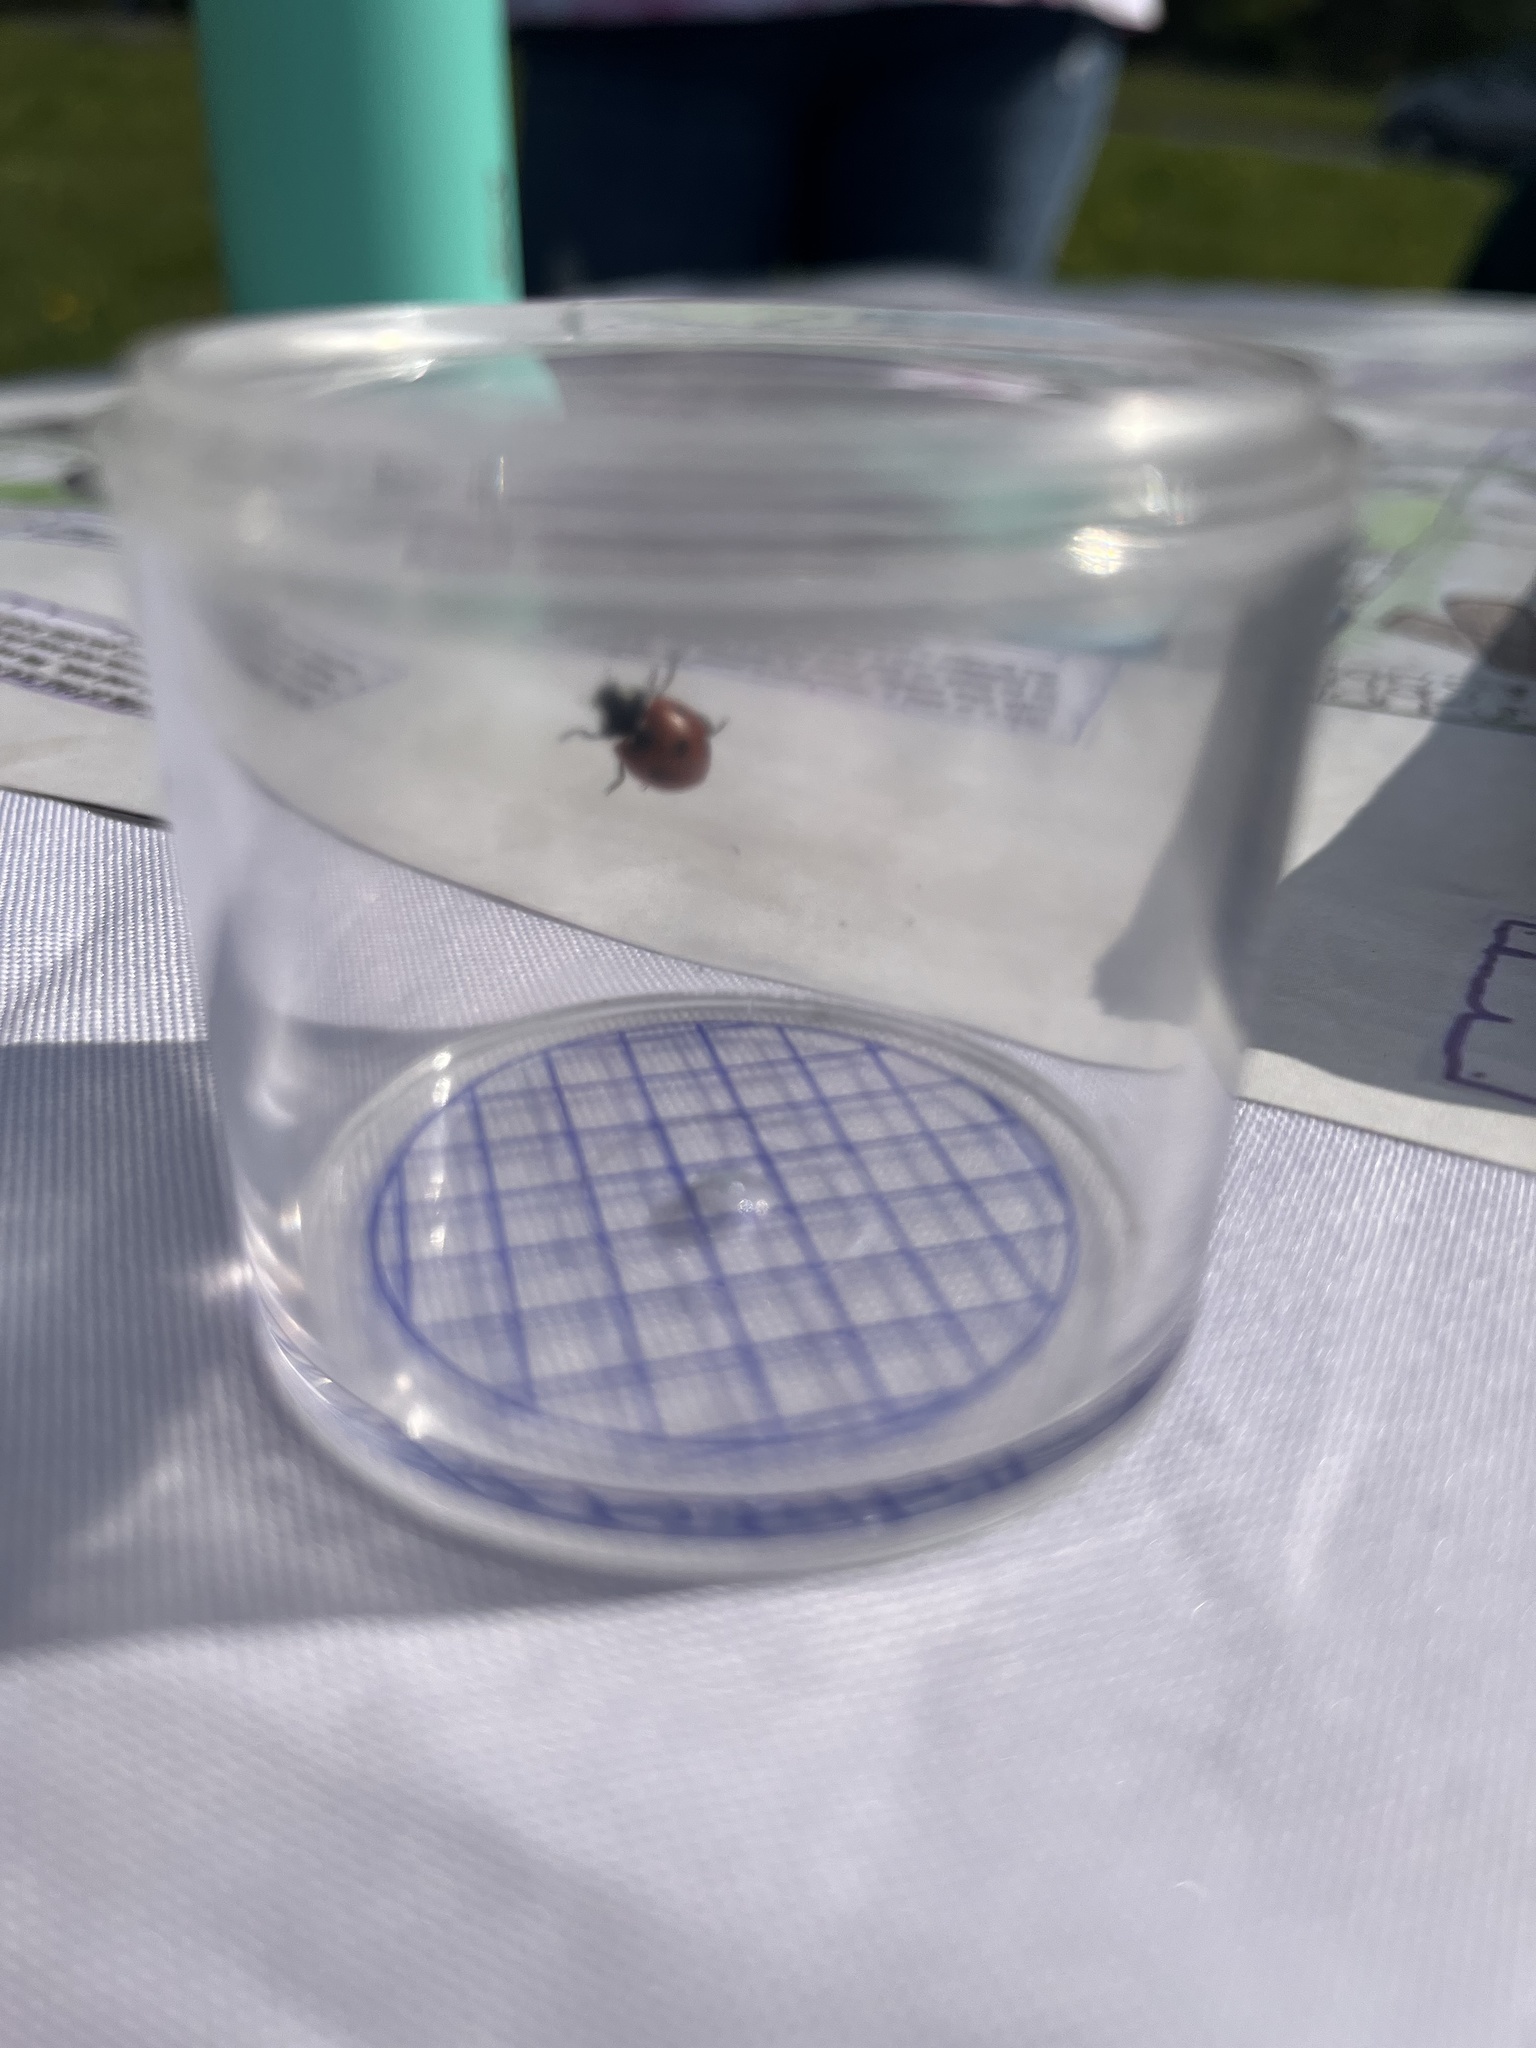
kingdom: Animalia
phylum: Arthropoda
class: Insecta
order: Coleoptera
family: Coccinellidae
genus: Coccinella
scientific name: Coccinella septempunctata
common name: Sevenspotted lady beetle
